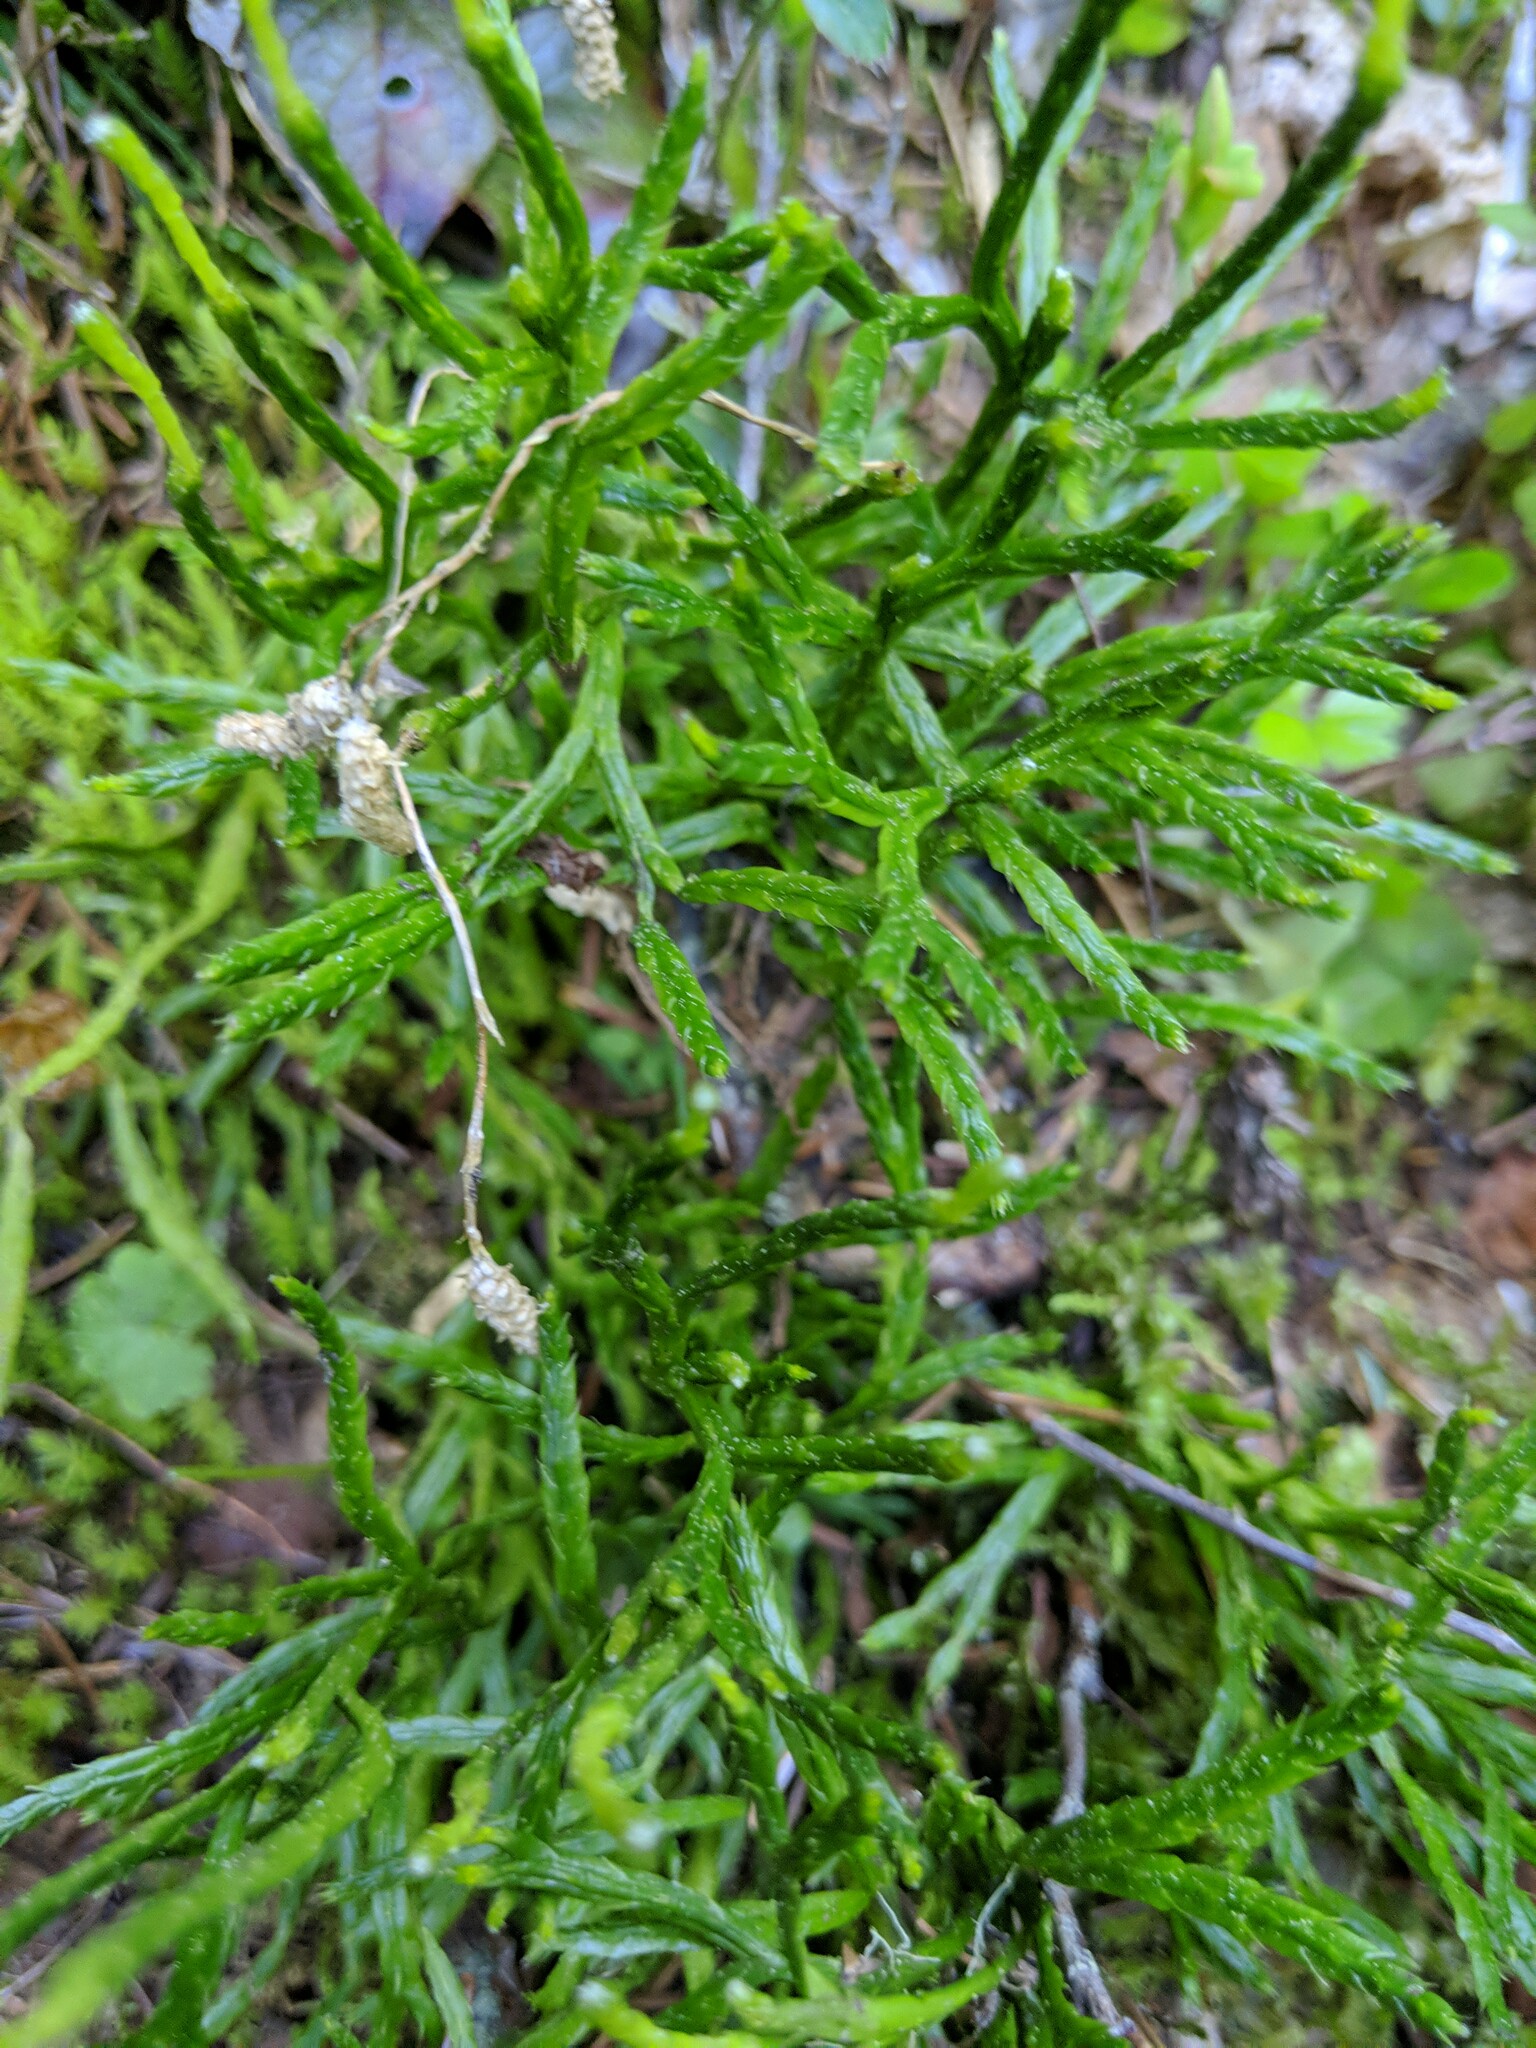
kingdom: Plantae
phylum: Tracheophyta
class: Lycopodiopsida
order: Lycopodiales
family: Lycopodiaceae
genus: Diphasiastrum
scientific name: Diphasiastrum complanatum
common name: Northern running-pine
